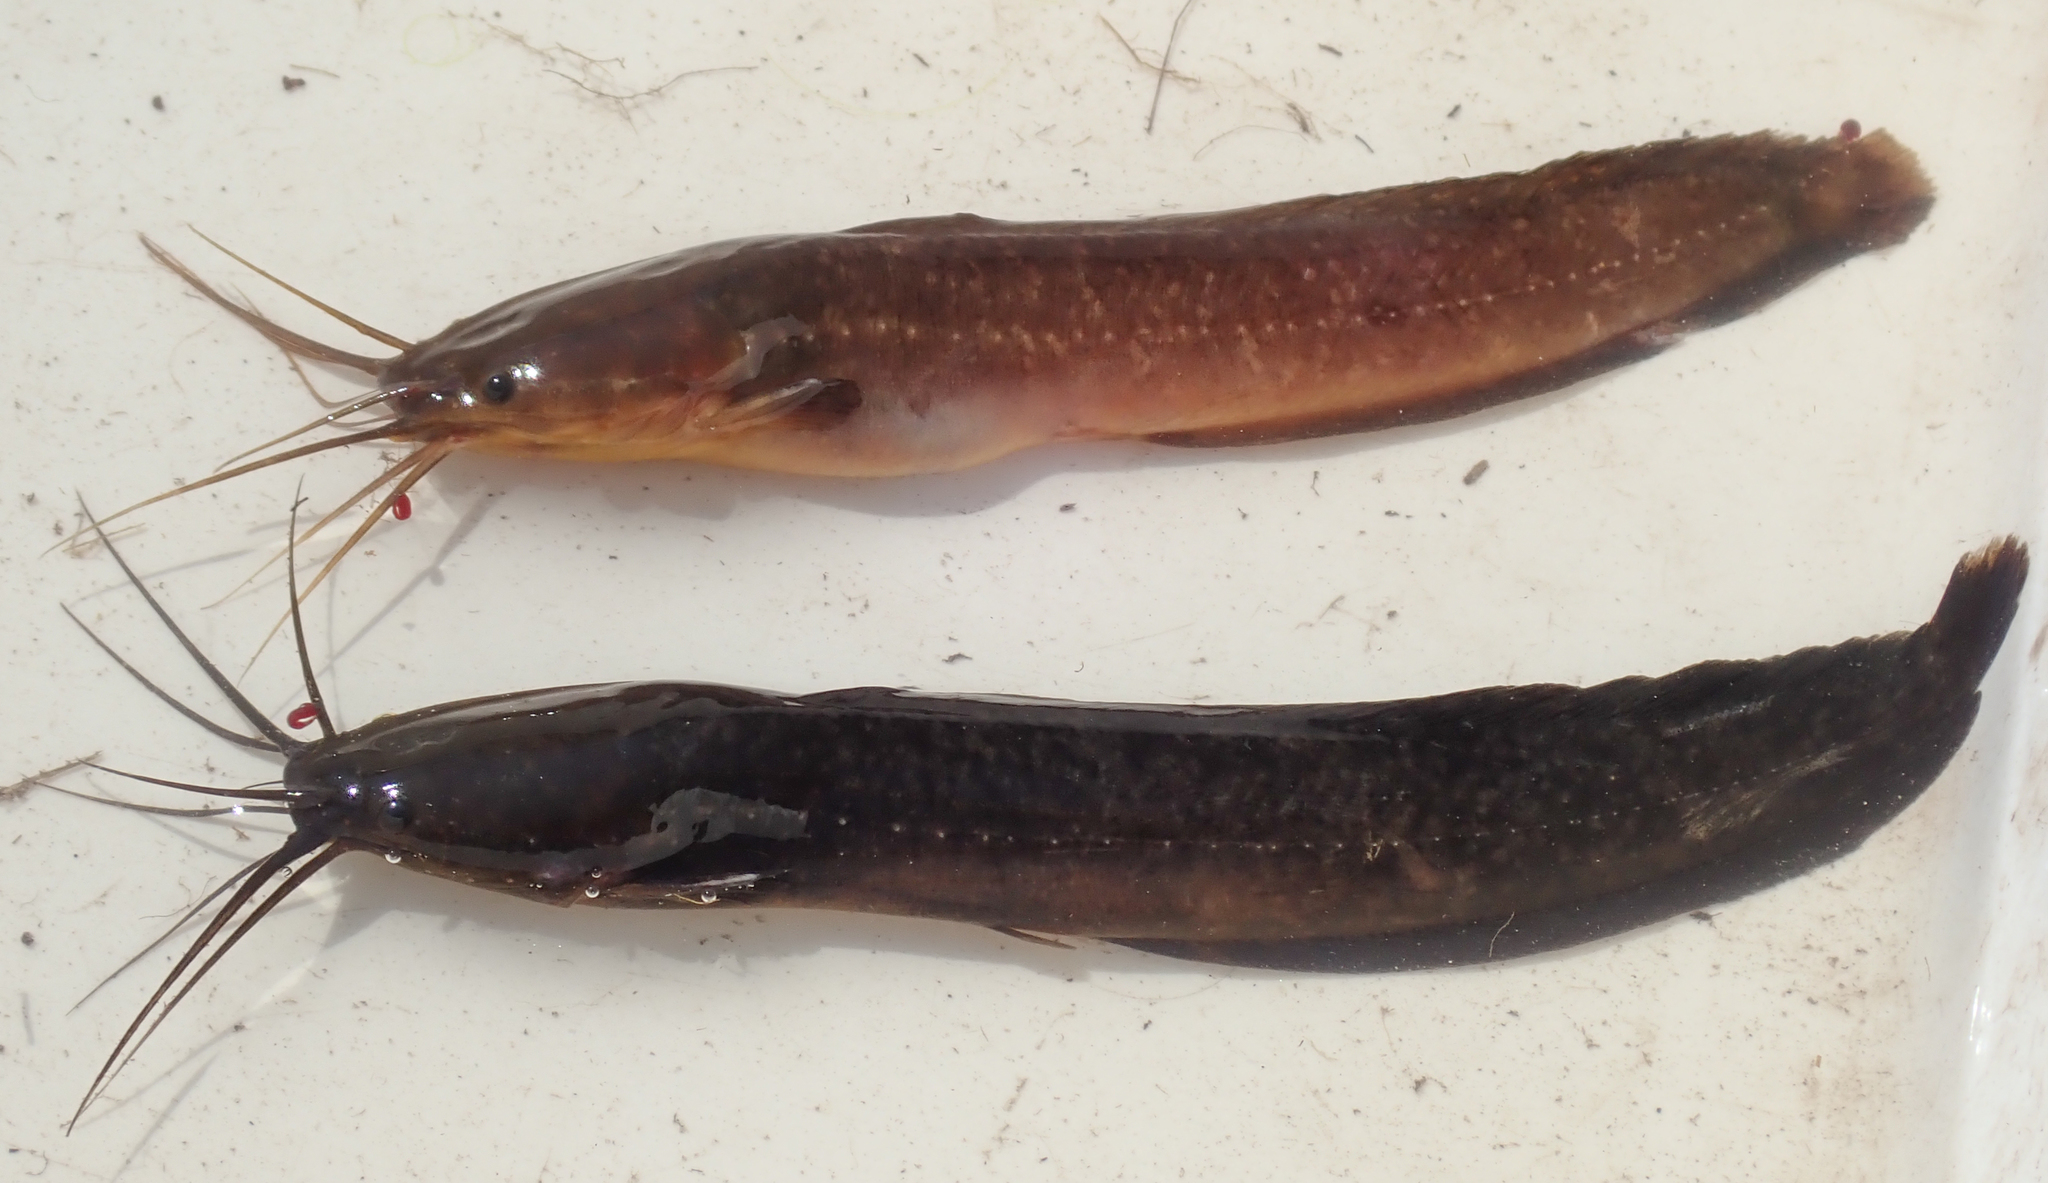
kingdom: Animalia
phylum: Chordata
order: Siluriformes
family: Clariidae
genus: Clarias
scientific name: Clarias theodorae
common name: Snake catfish
